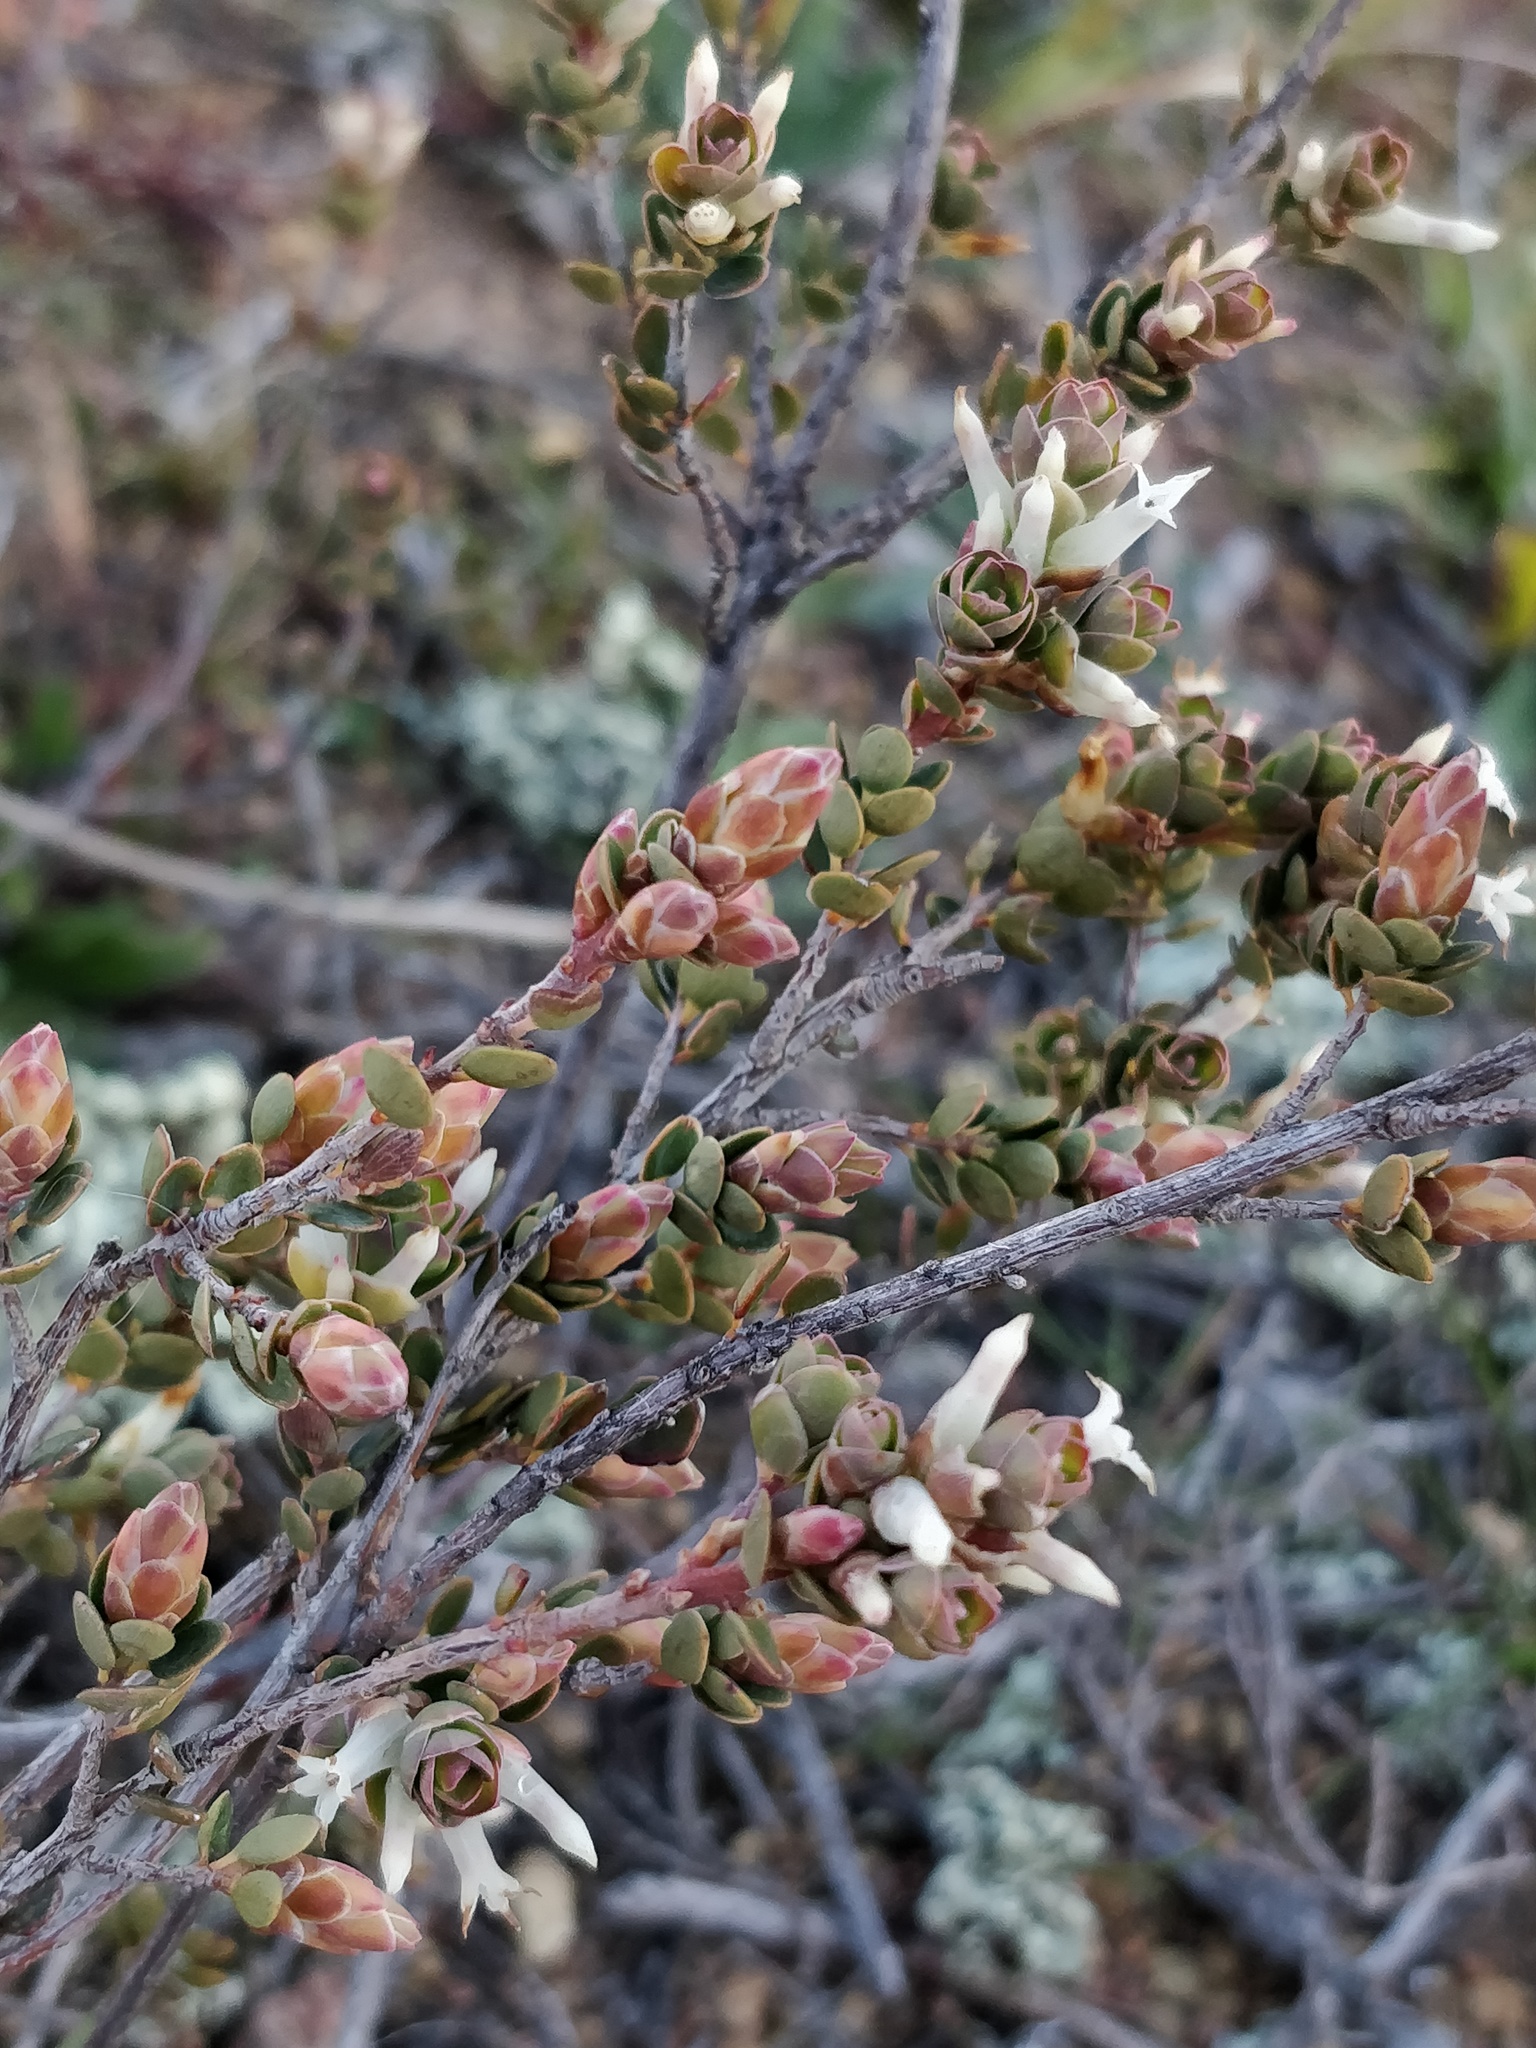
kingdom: Plantae
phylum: Tracheophyta
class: Magnoliopsida
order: Ericales
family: Ericaceae
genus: Brachyloma
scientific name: Brachyloma daphnoides
